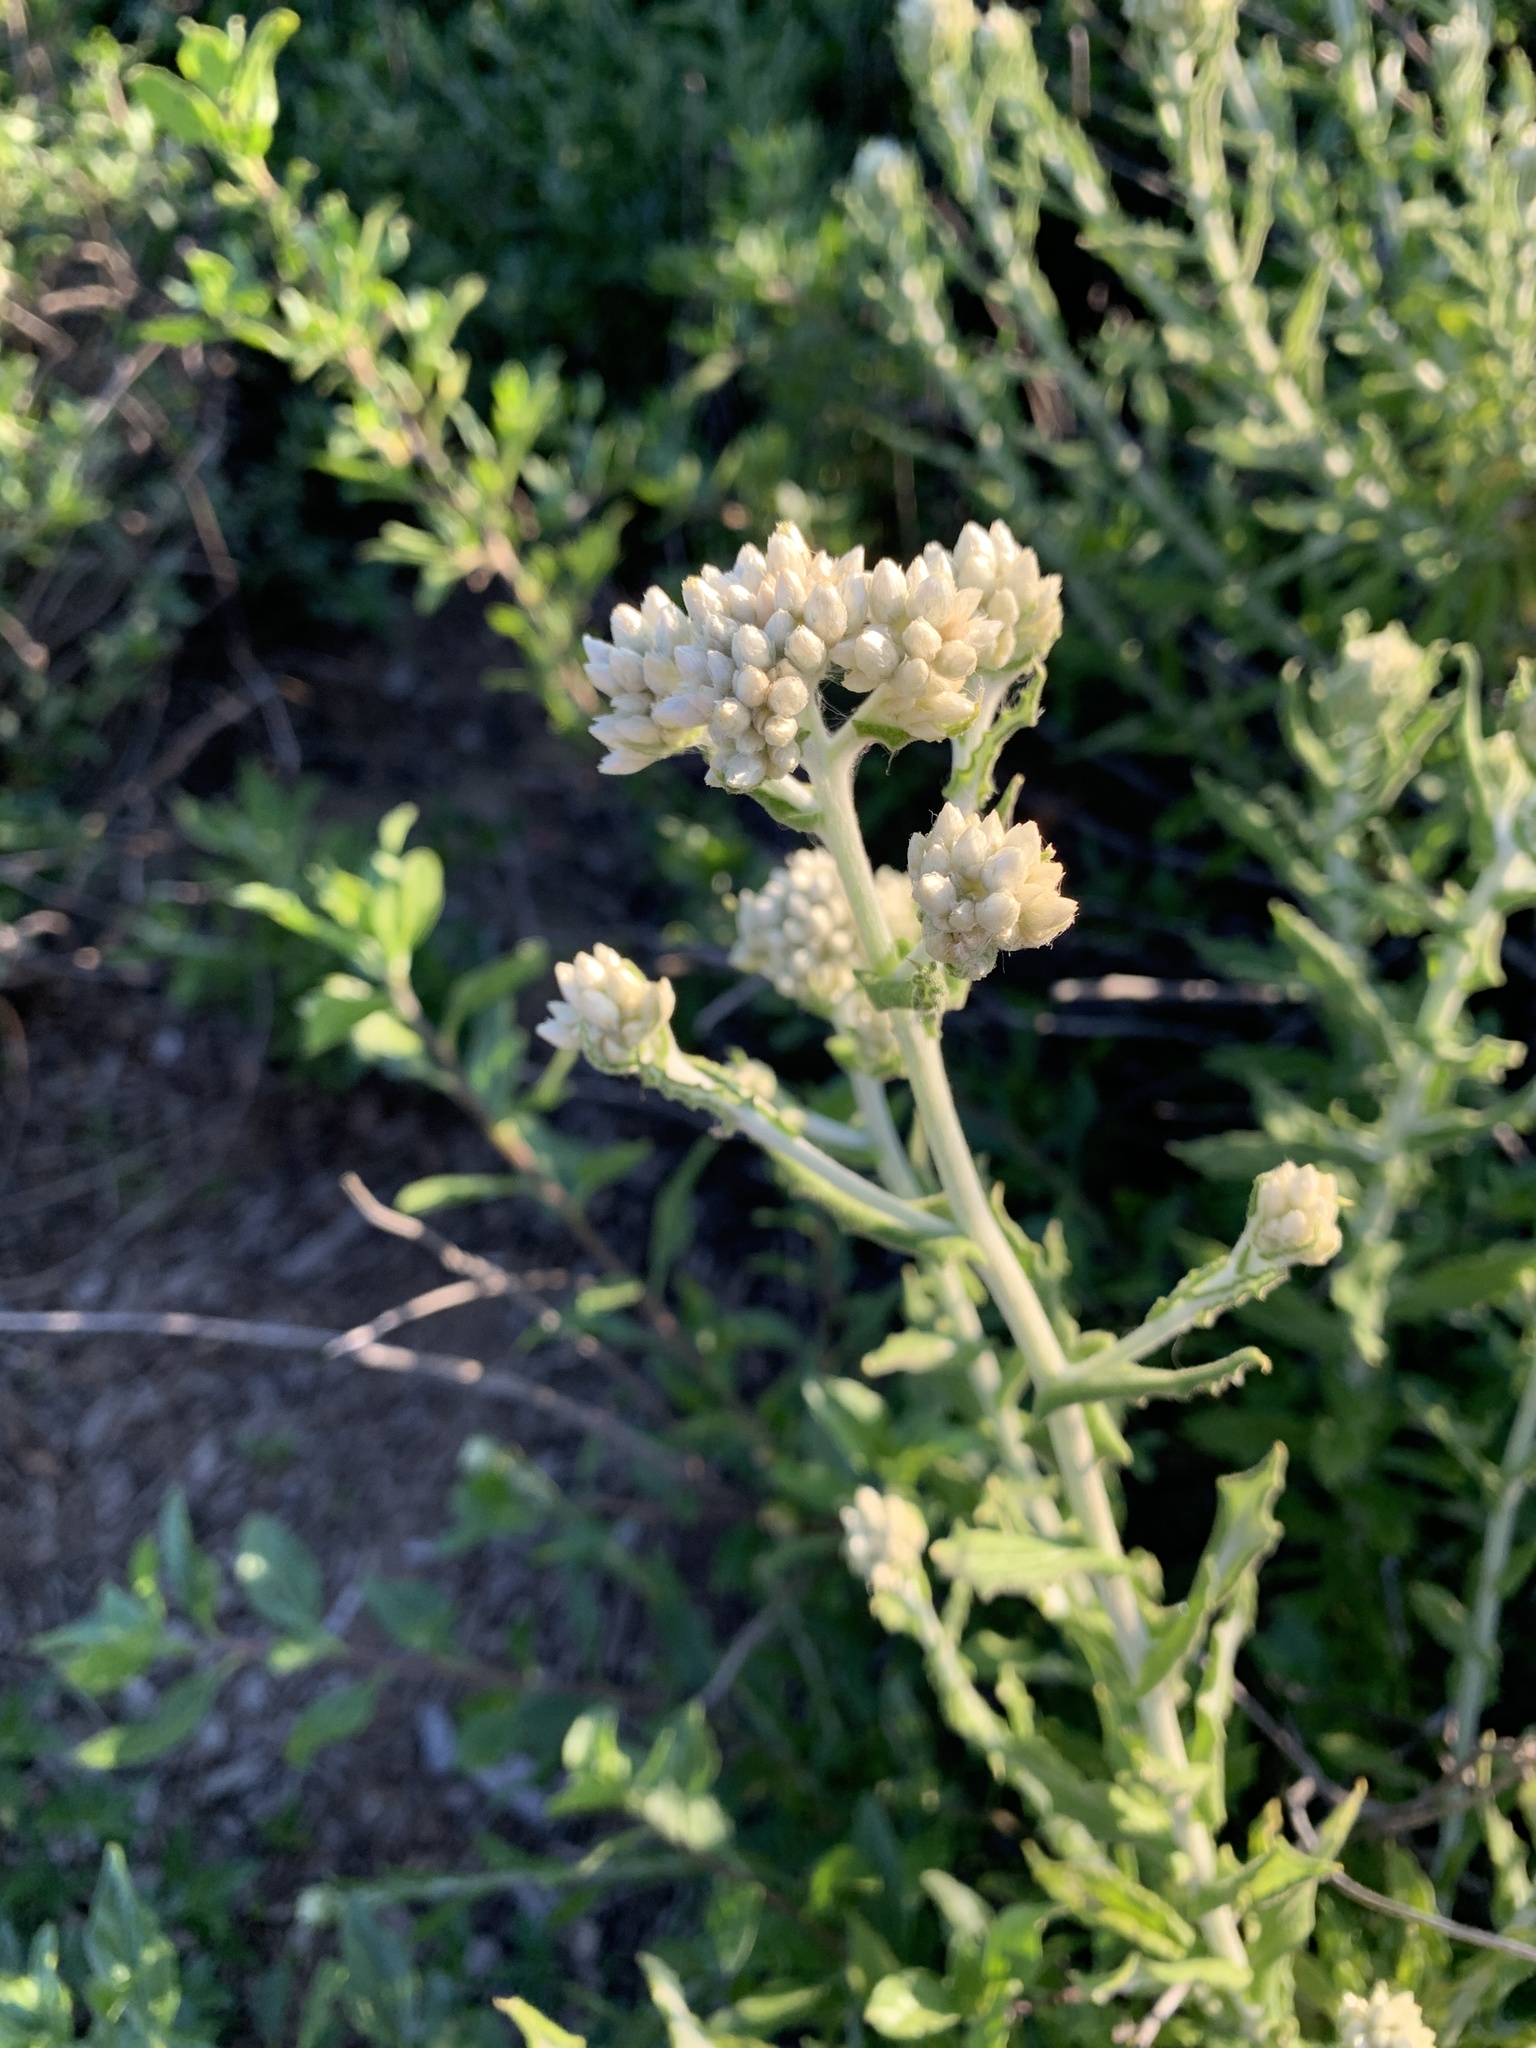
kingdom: Plantae
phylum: Tracheophyta
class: Magnoliopsida
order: Asterales
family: Asteraceae
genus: Pseudognaphalium
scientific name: Pseudognaphalium biolettii
